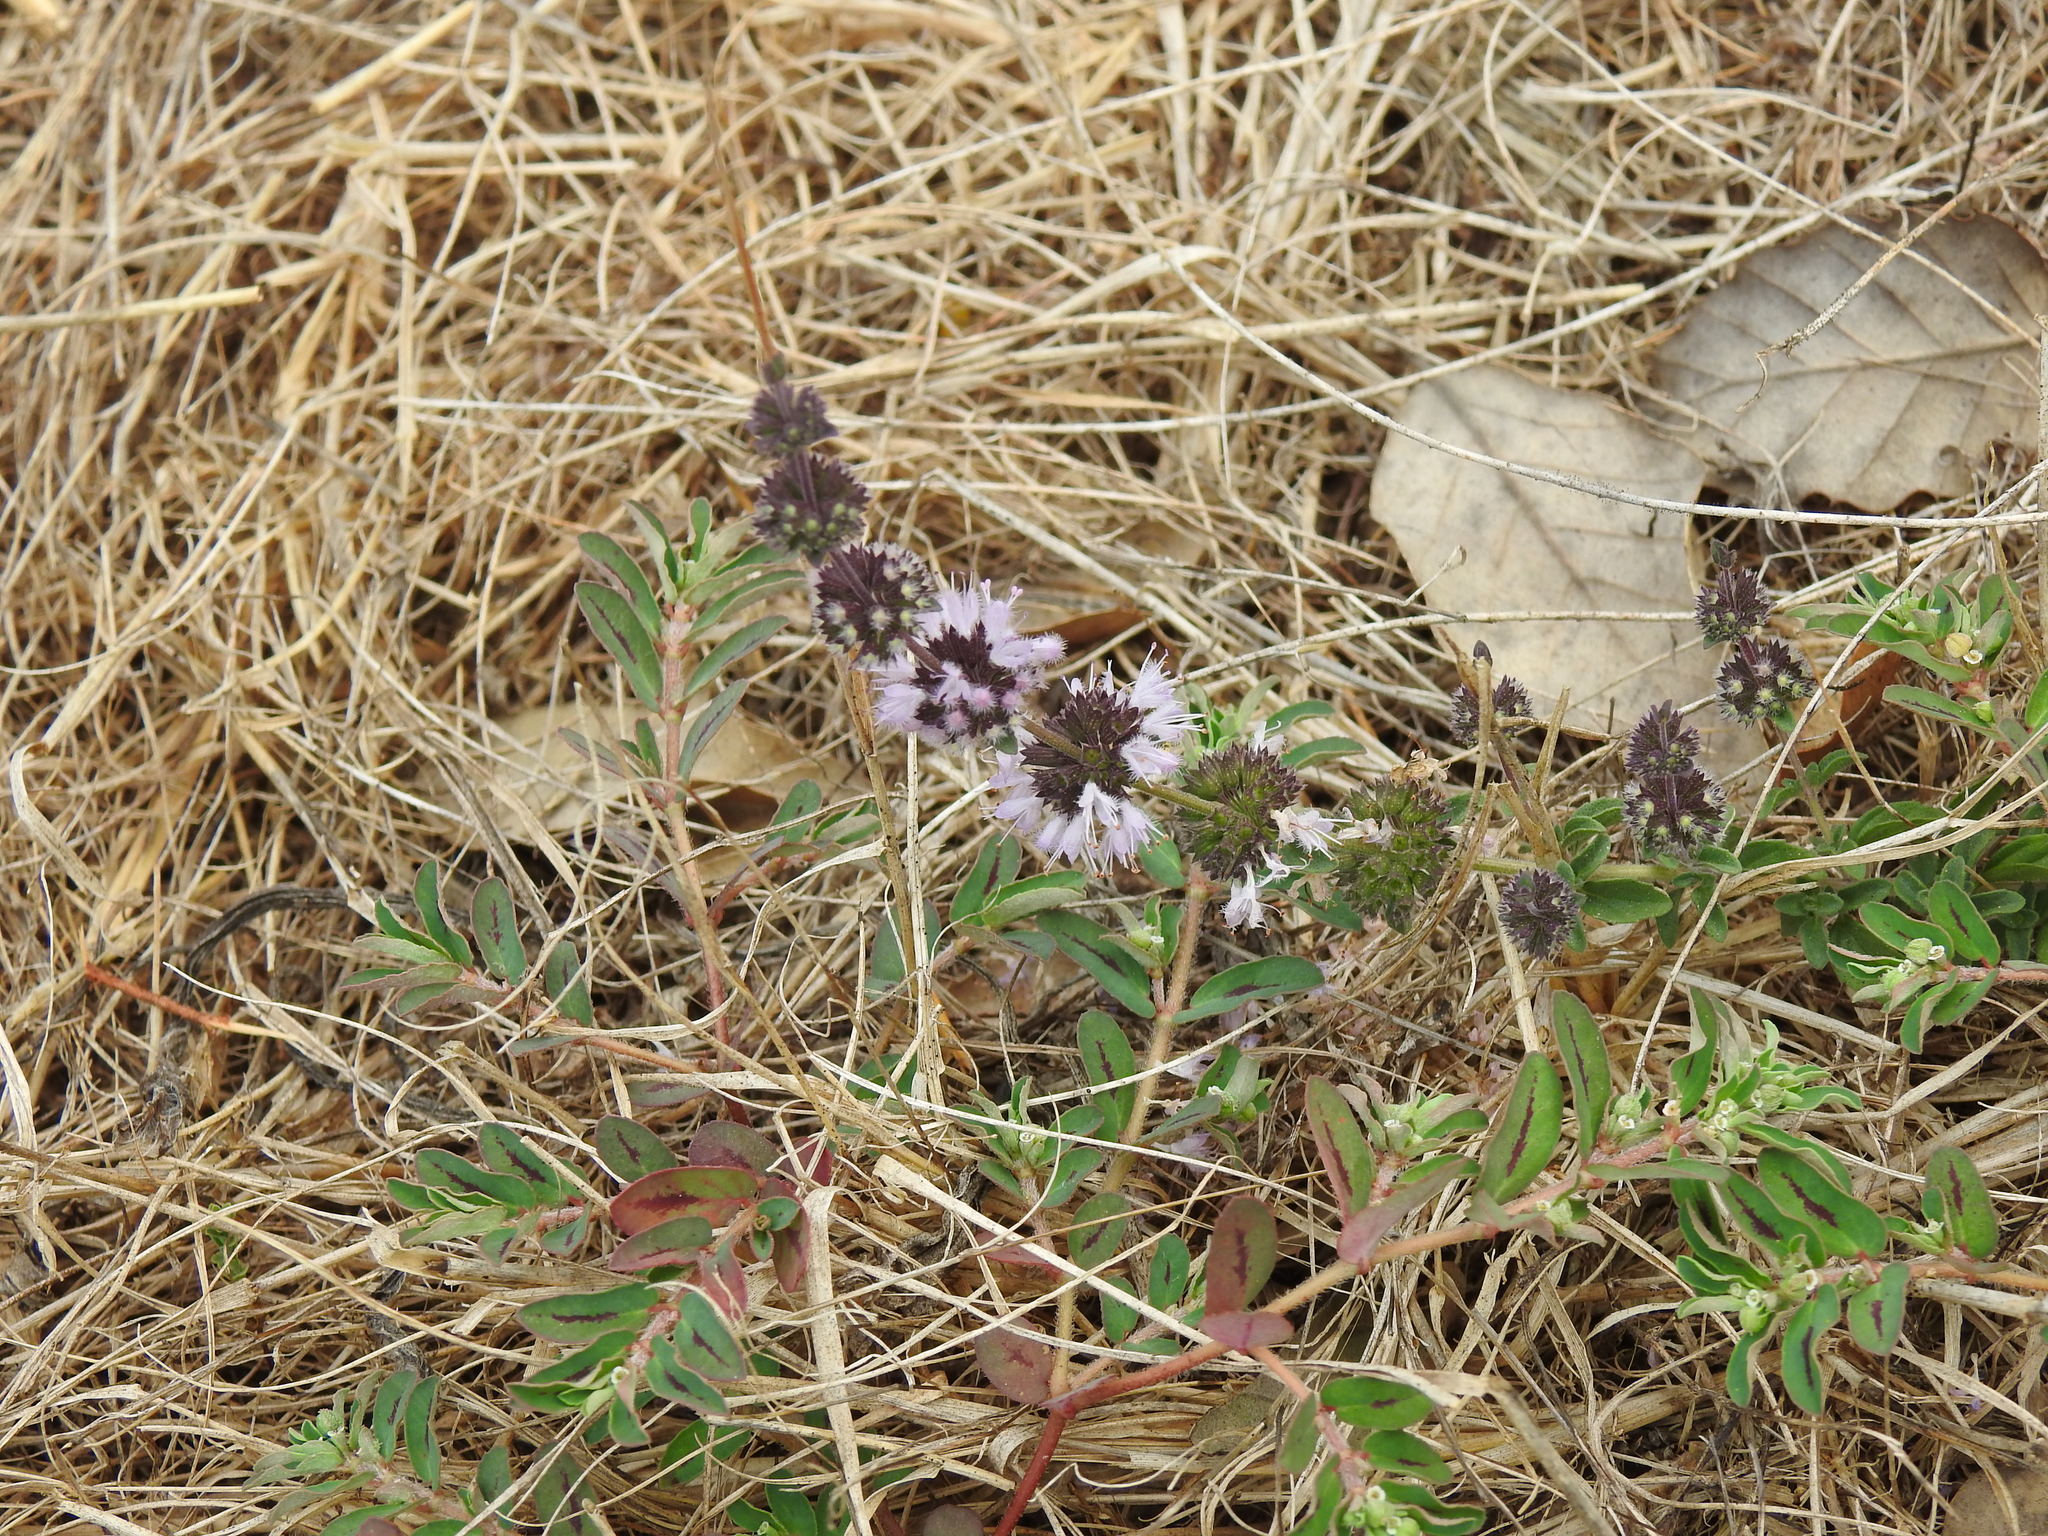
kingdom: Plantae
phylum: Tracheophyta
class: Magnoliopsida
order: Lamiales
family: Lamiaceae
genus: Mentha
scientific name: Mentha pulegium
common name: Pennyroyal
